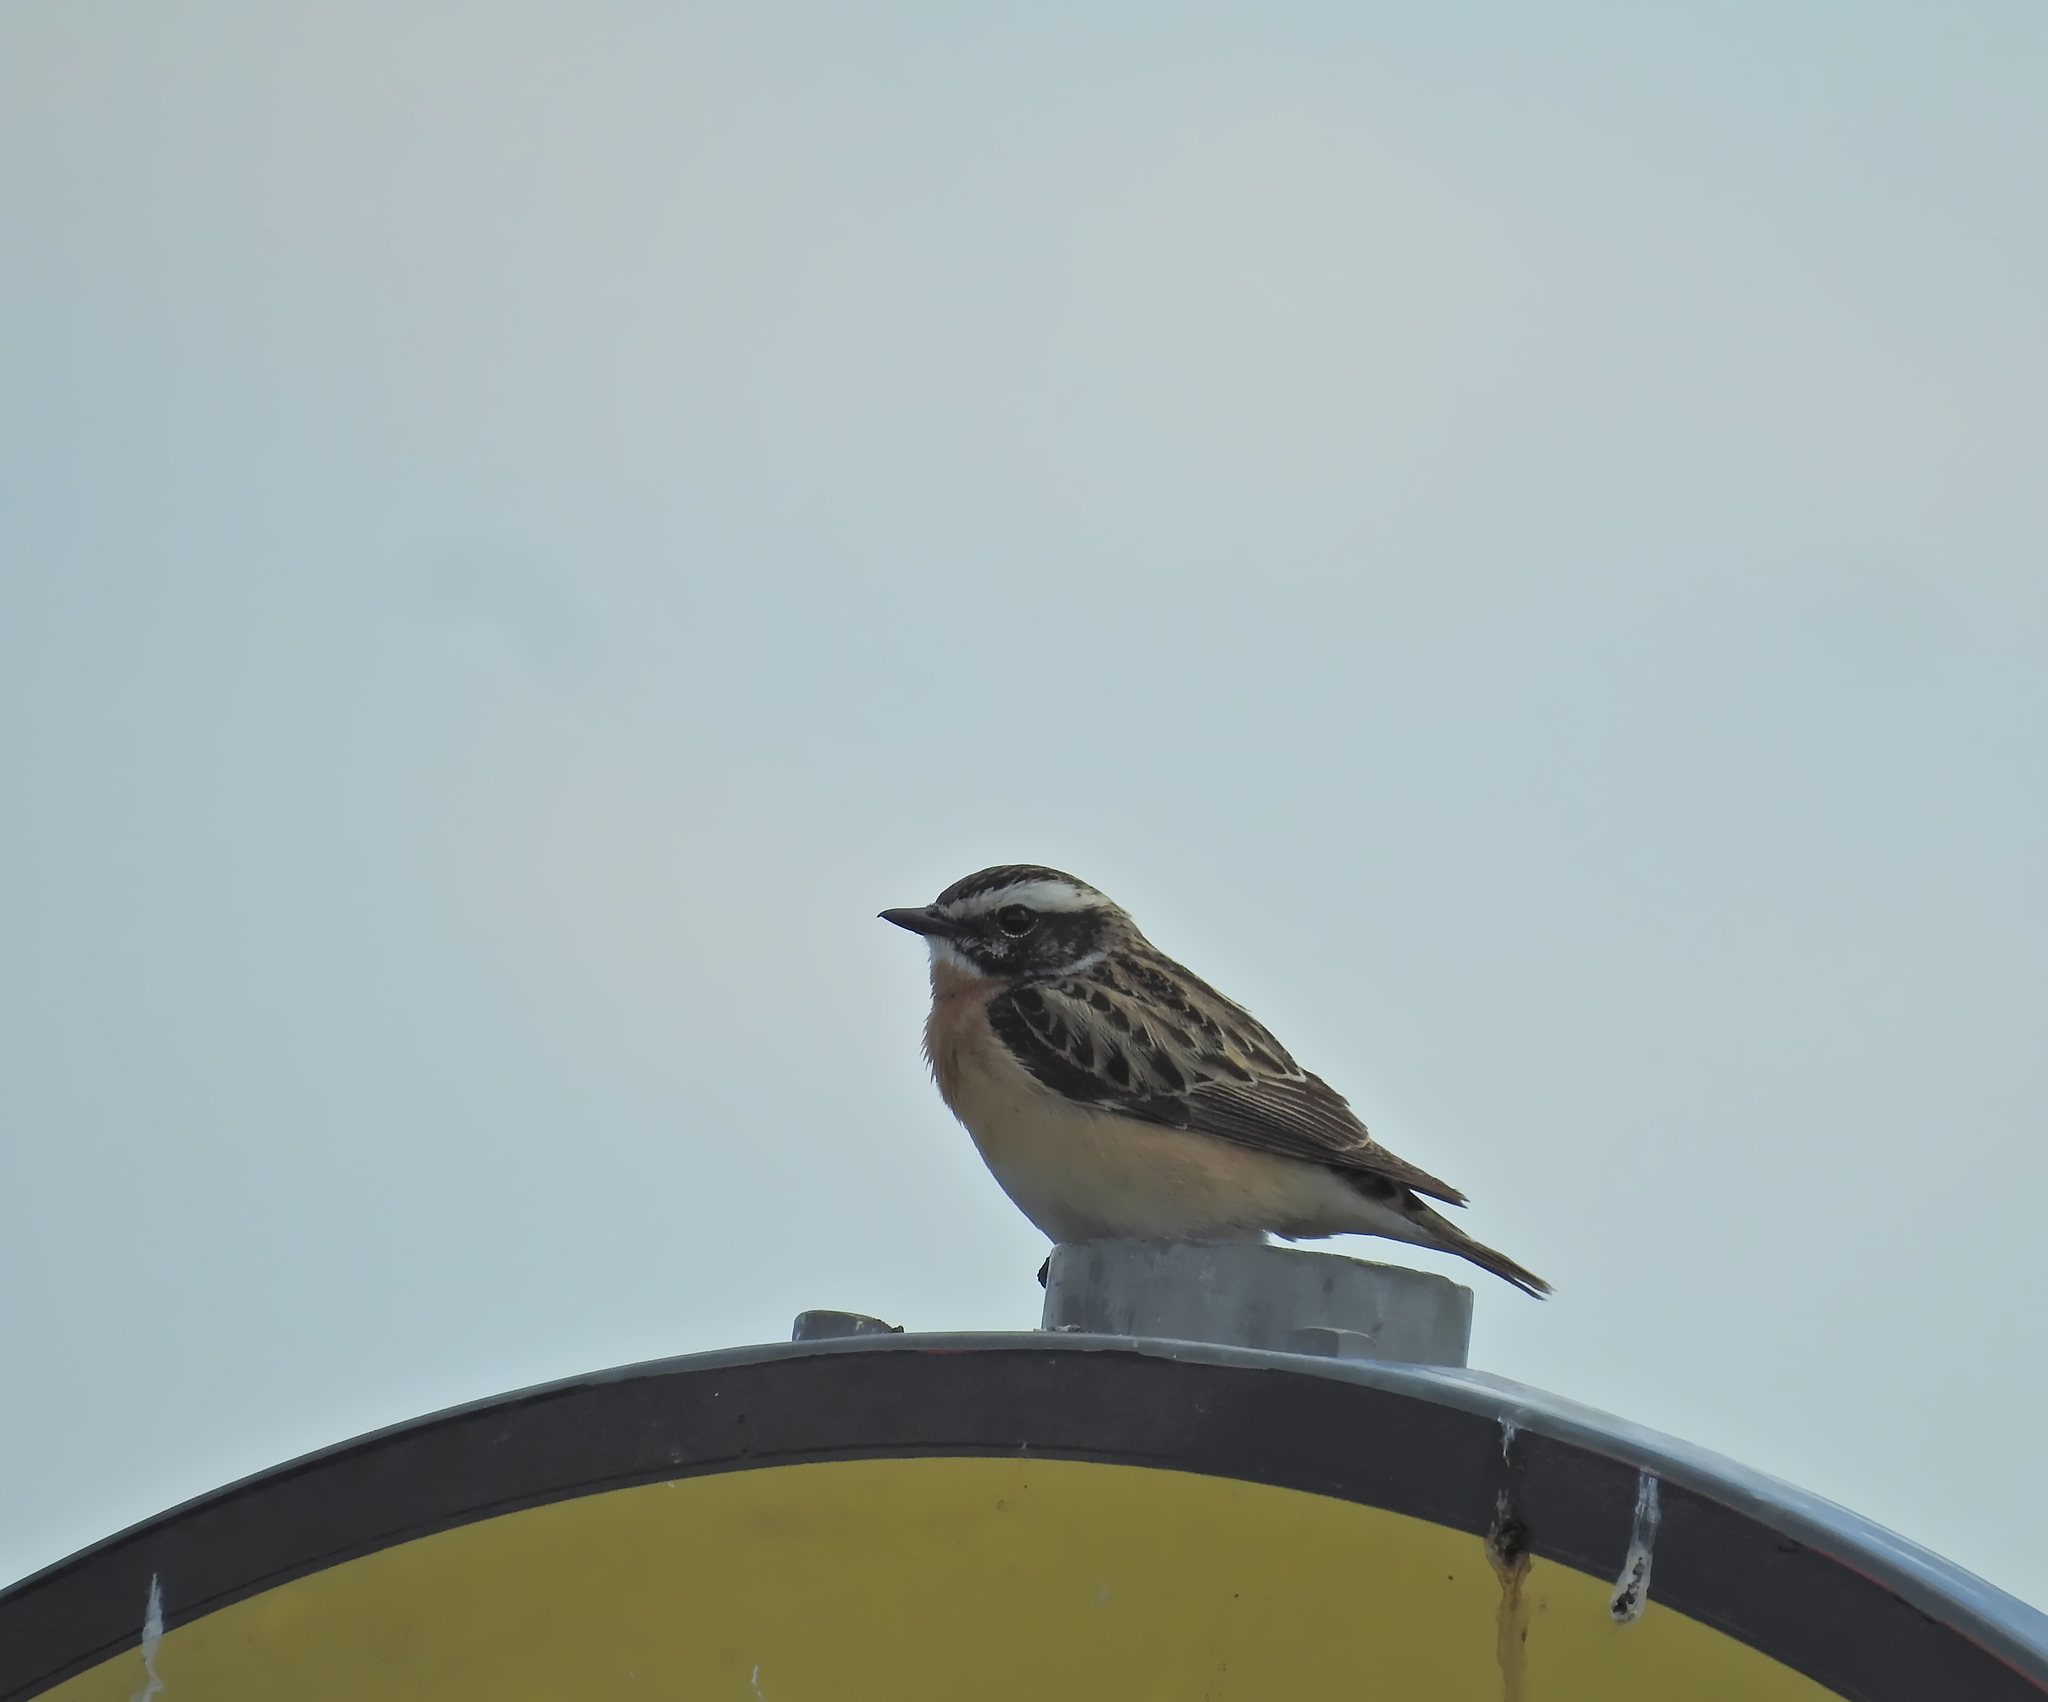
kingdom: Animalia
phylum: Chordata
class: Aves
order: Passeriformes
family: Muscicapidae
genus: Saxicola
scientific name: Saxicola rubetra
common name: Whinchat
